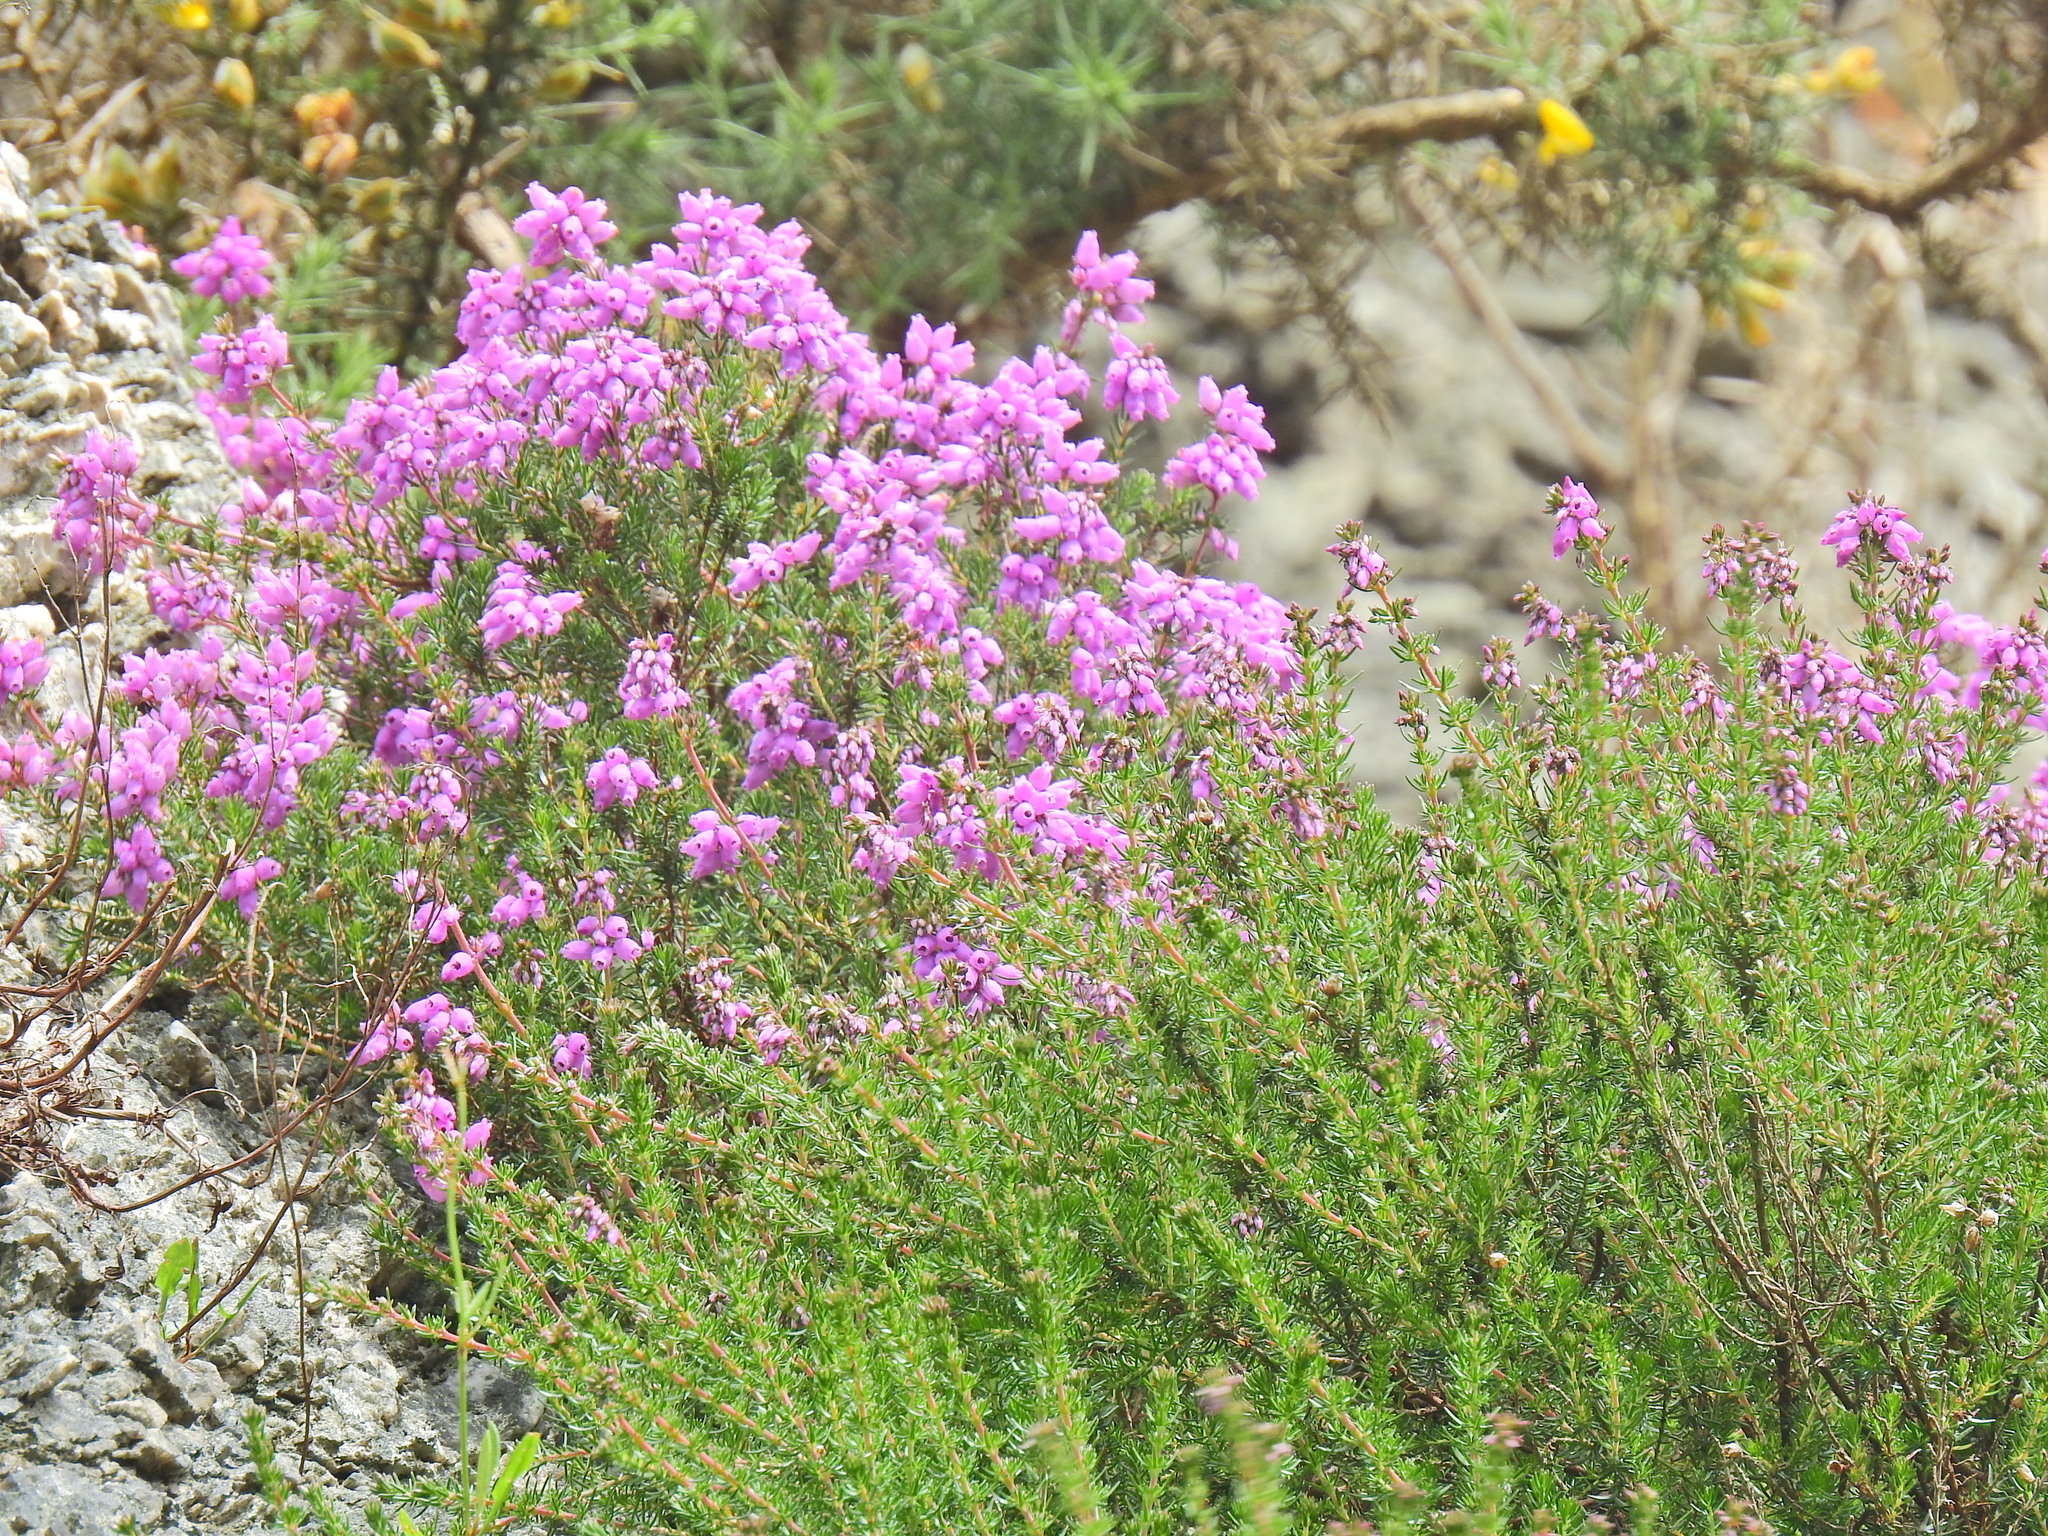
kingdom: Plantae
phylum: Tracheophyta
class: Magnoliopsida
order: Ericales
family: Ericaceae
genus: Erica
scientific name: Erica cinerea
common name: Bell heather
